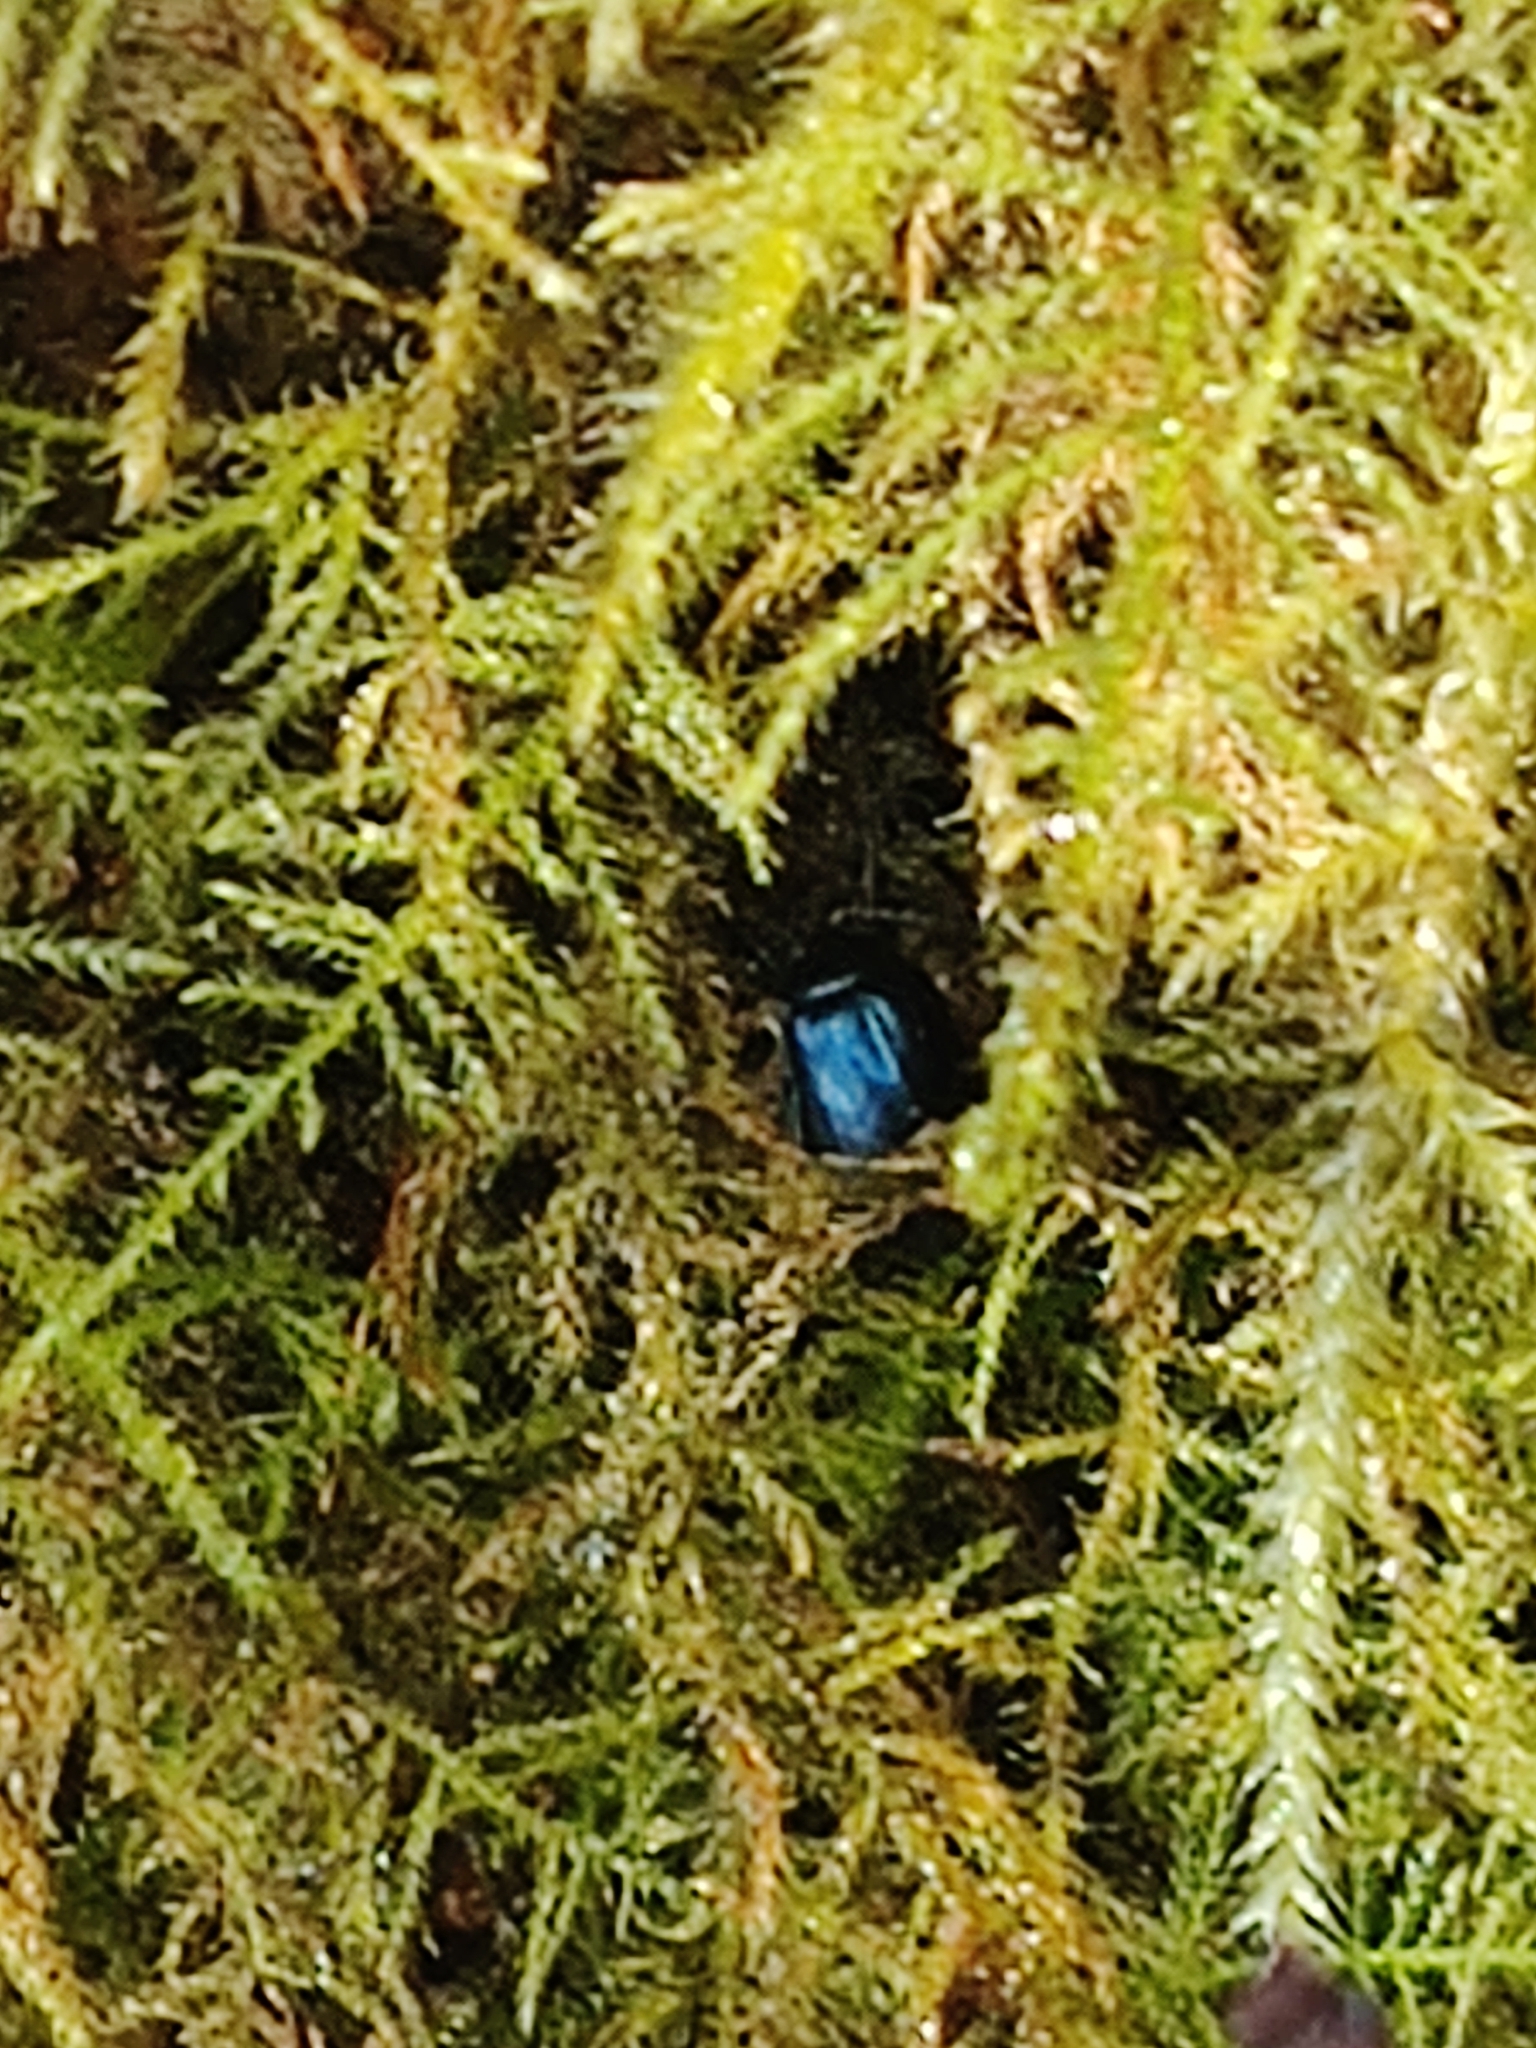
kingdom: Animalia
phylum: Arthropoda
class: Insecta
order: Coleoptera
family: Chrysomelidae
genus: Agelastica
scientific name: Agelastica alni
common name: Alder leaf beetle
